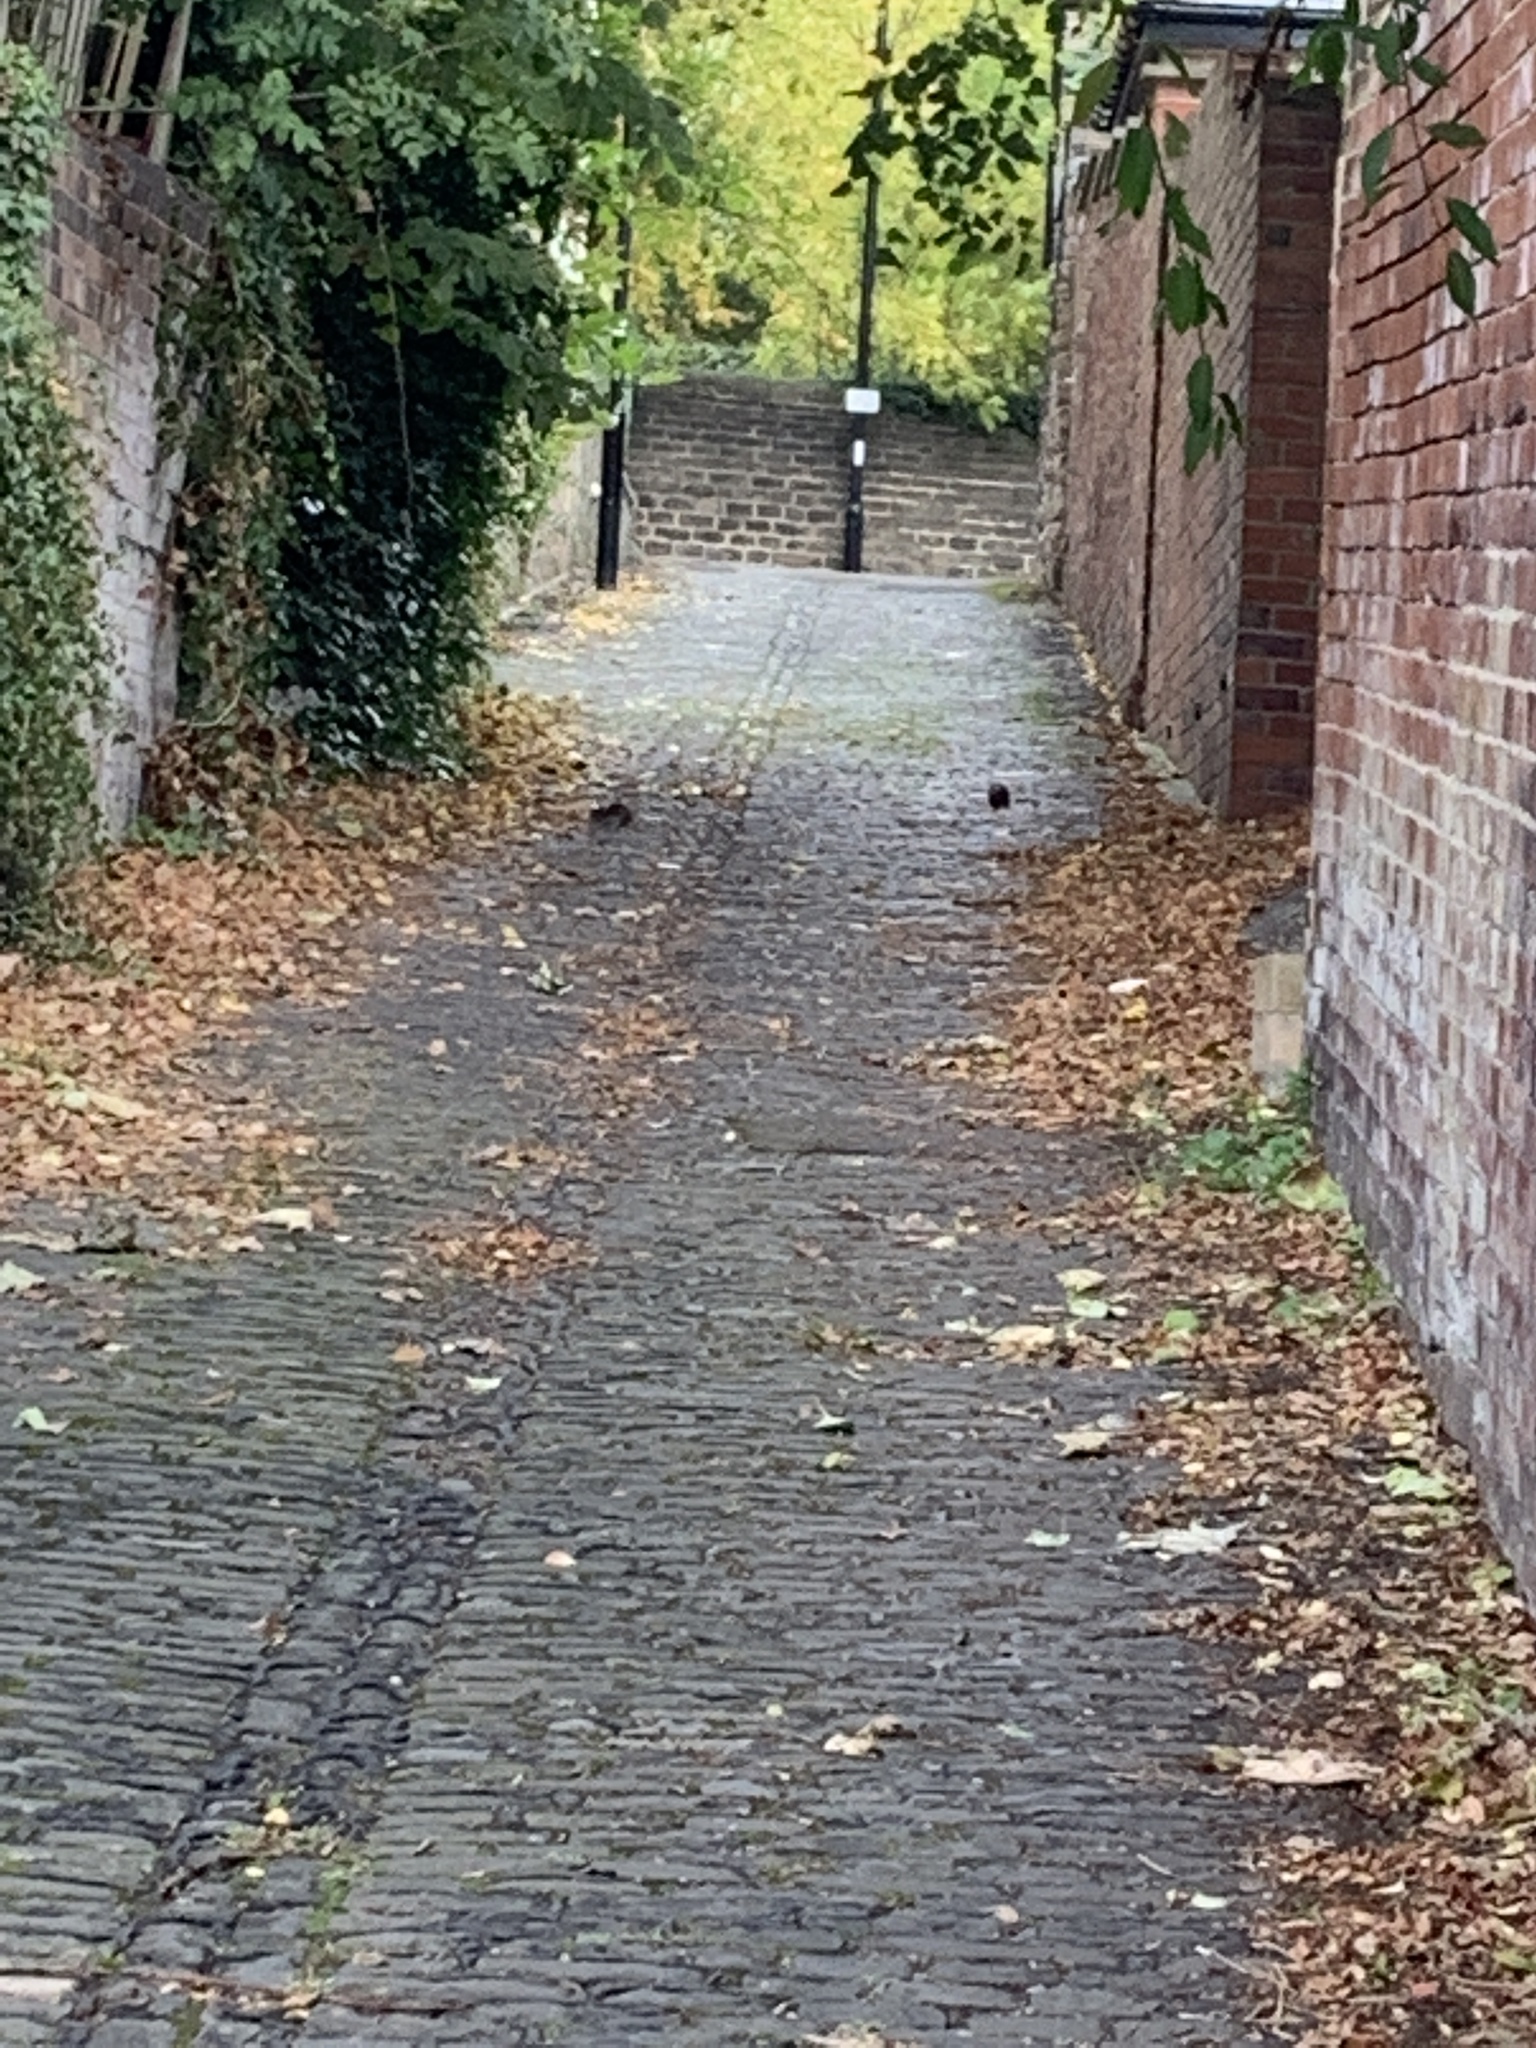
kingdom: Animalia
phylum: Chordata
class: Mammalia
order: Rodentia
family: Muridae
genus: Rattus
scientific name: Rattus norvegicus
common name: Brown rat
